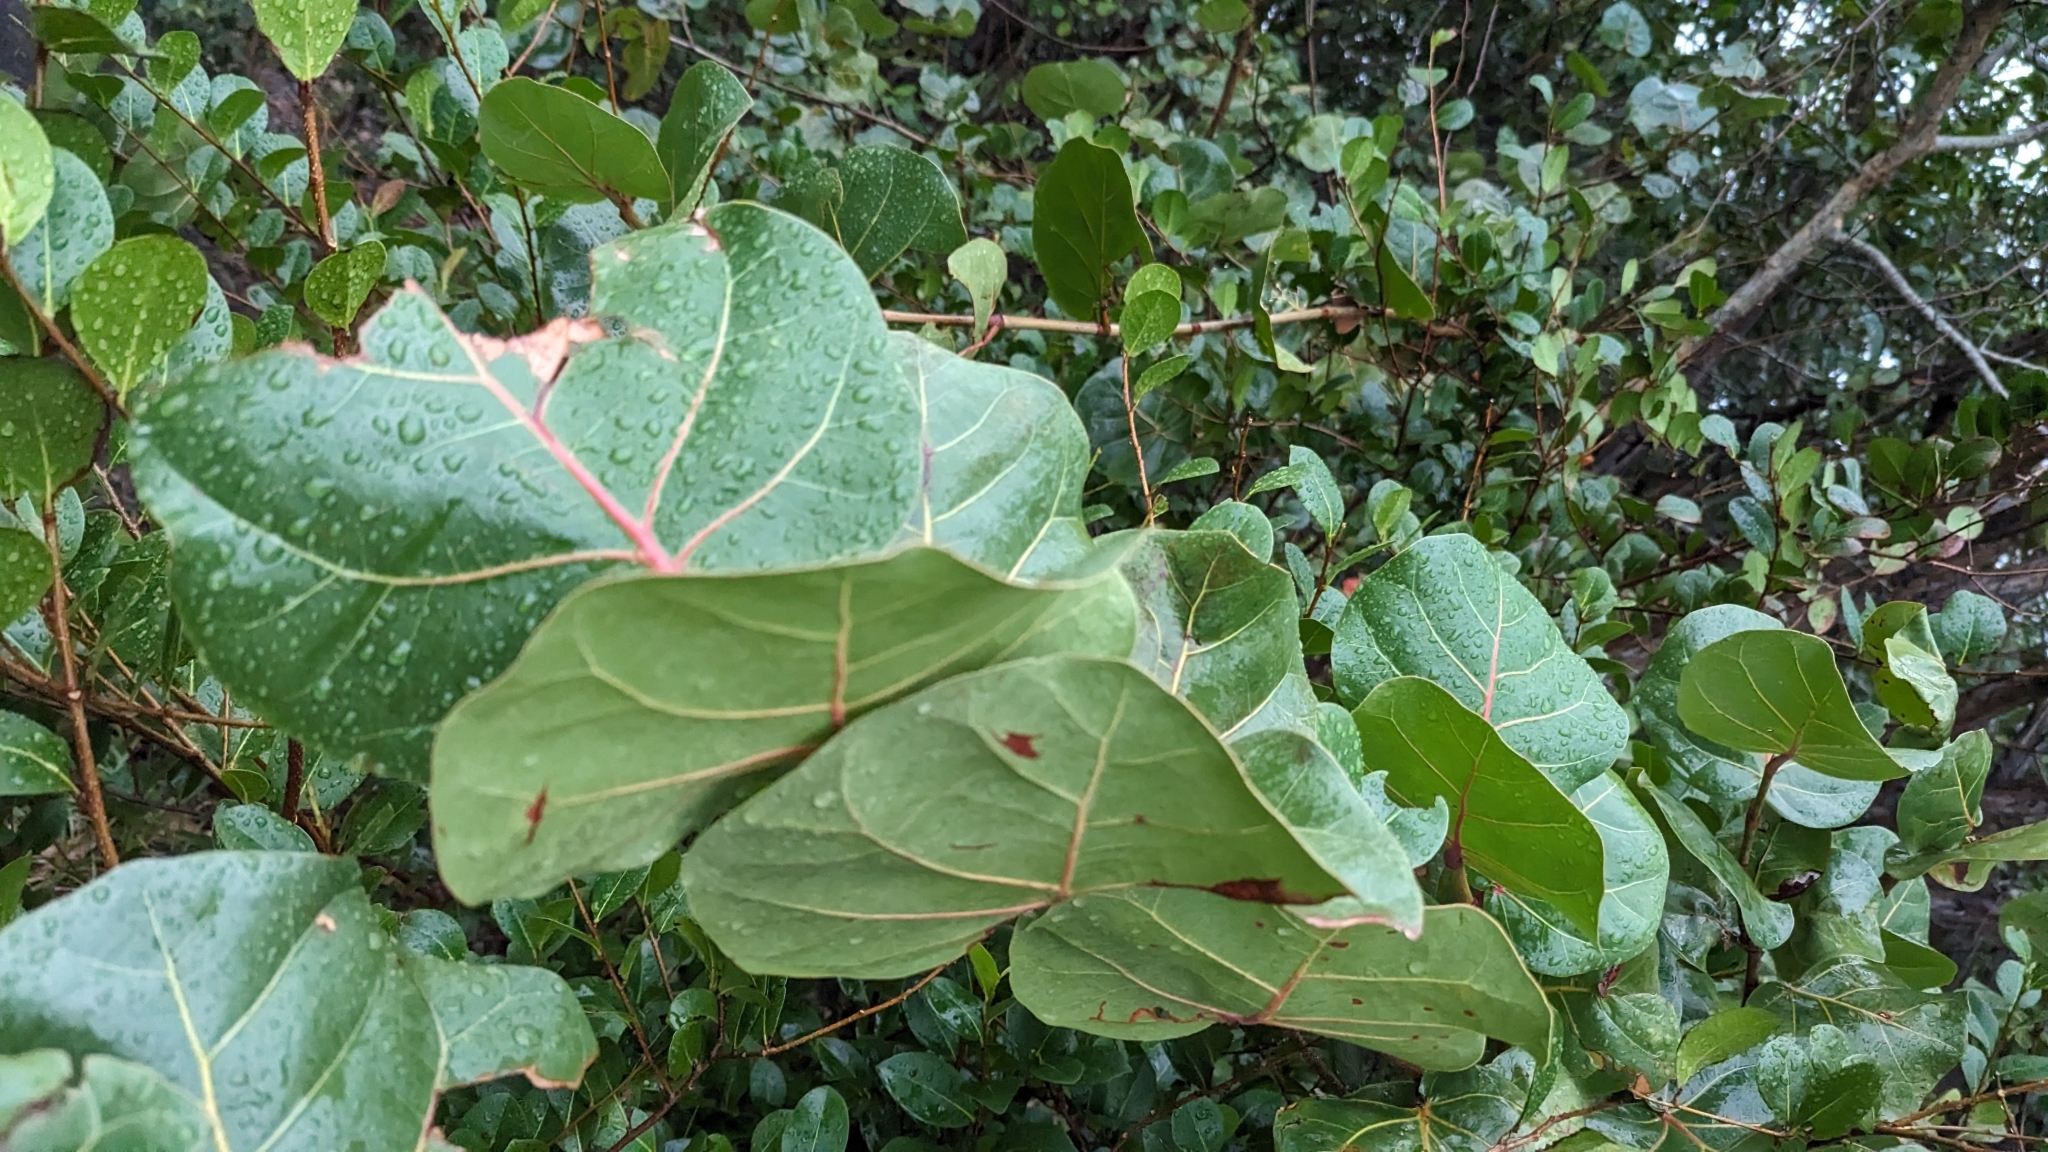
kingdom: Plantae
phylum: Tracheophyta
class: Magnoliopsida
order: Caryophyllales
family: Polygonaceae
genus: Coccoloba
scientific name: Coccoloba uvifera
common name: Seagrape
